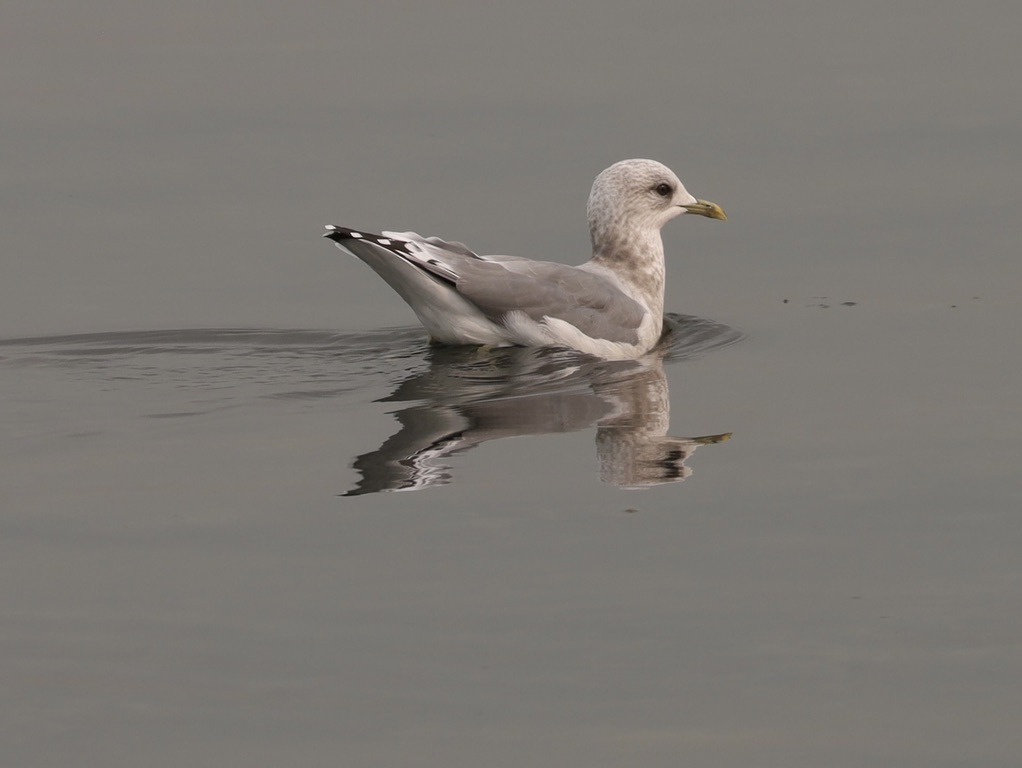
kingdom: Animalia
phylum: Chordata
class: Aves
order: Charadriiformes
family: Laridae
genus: Larus
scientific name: Larus brachyrhynchus
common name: Short-billed gull
